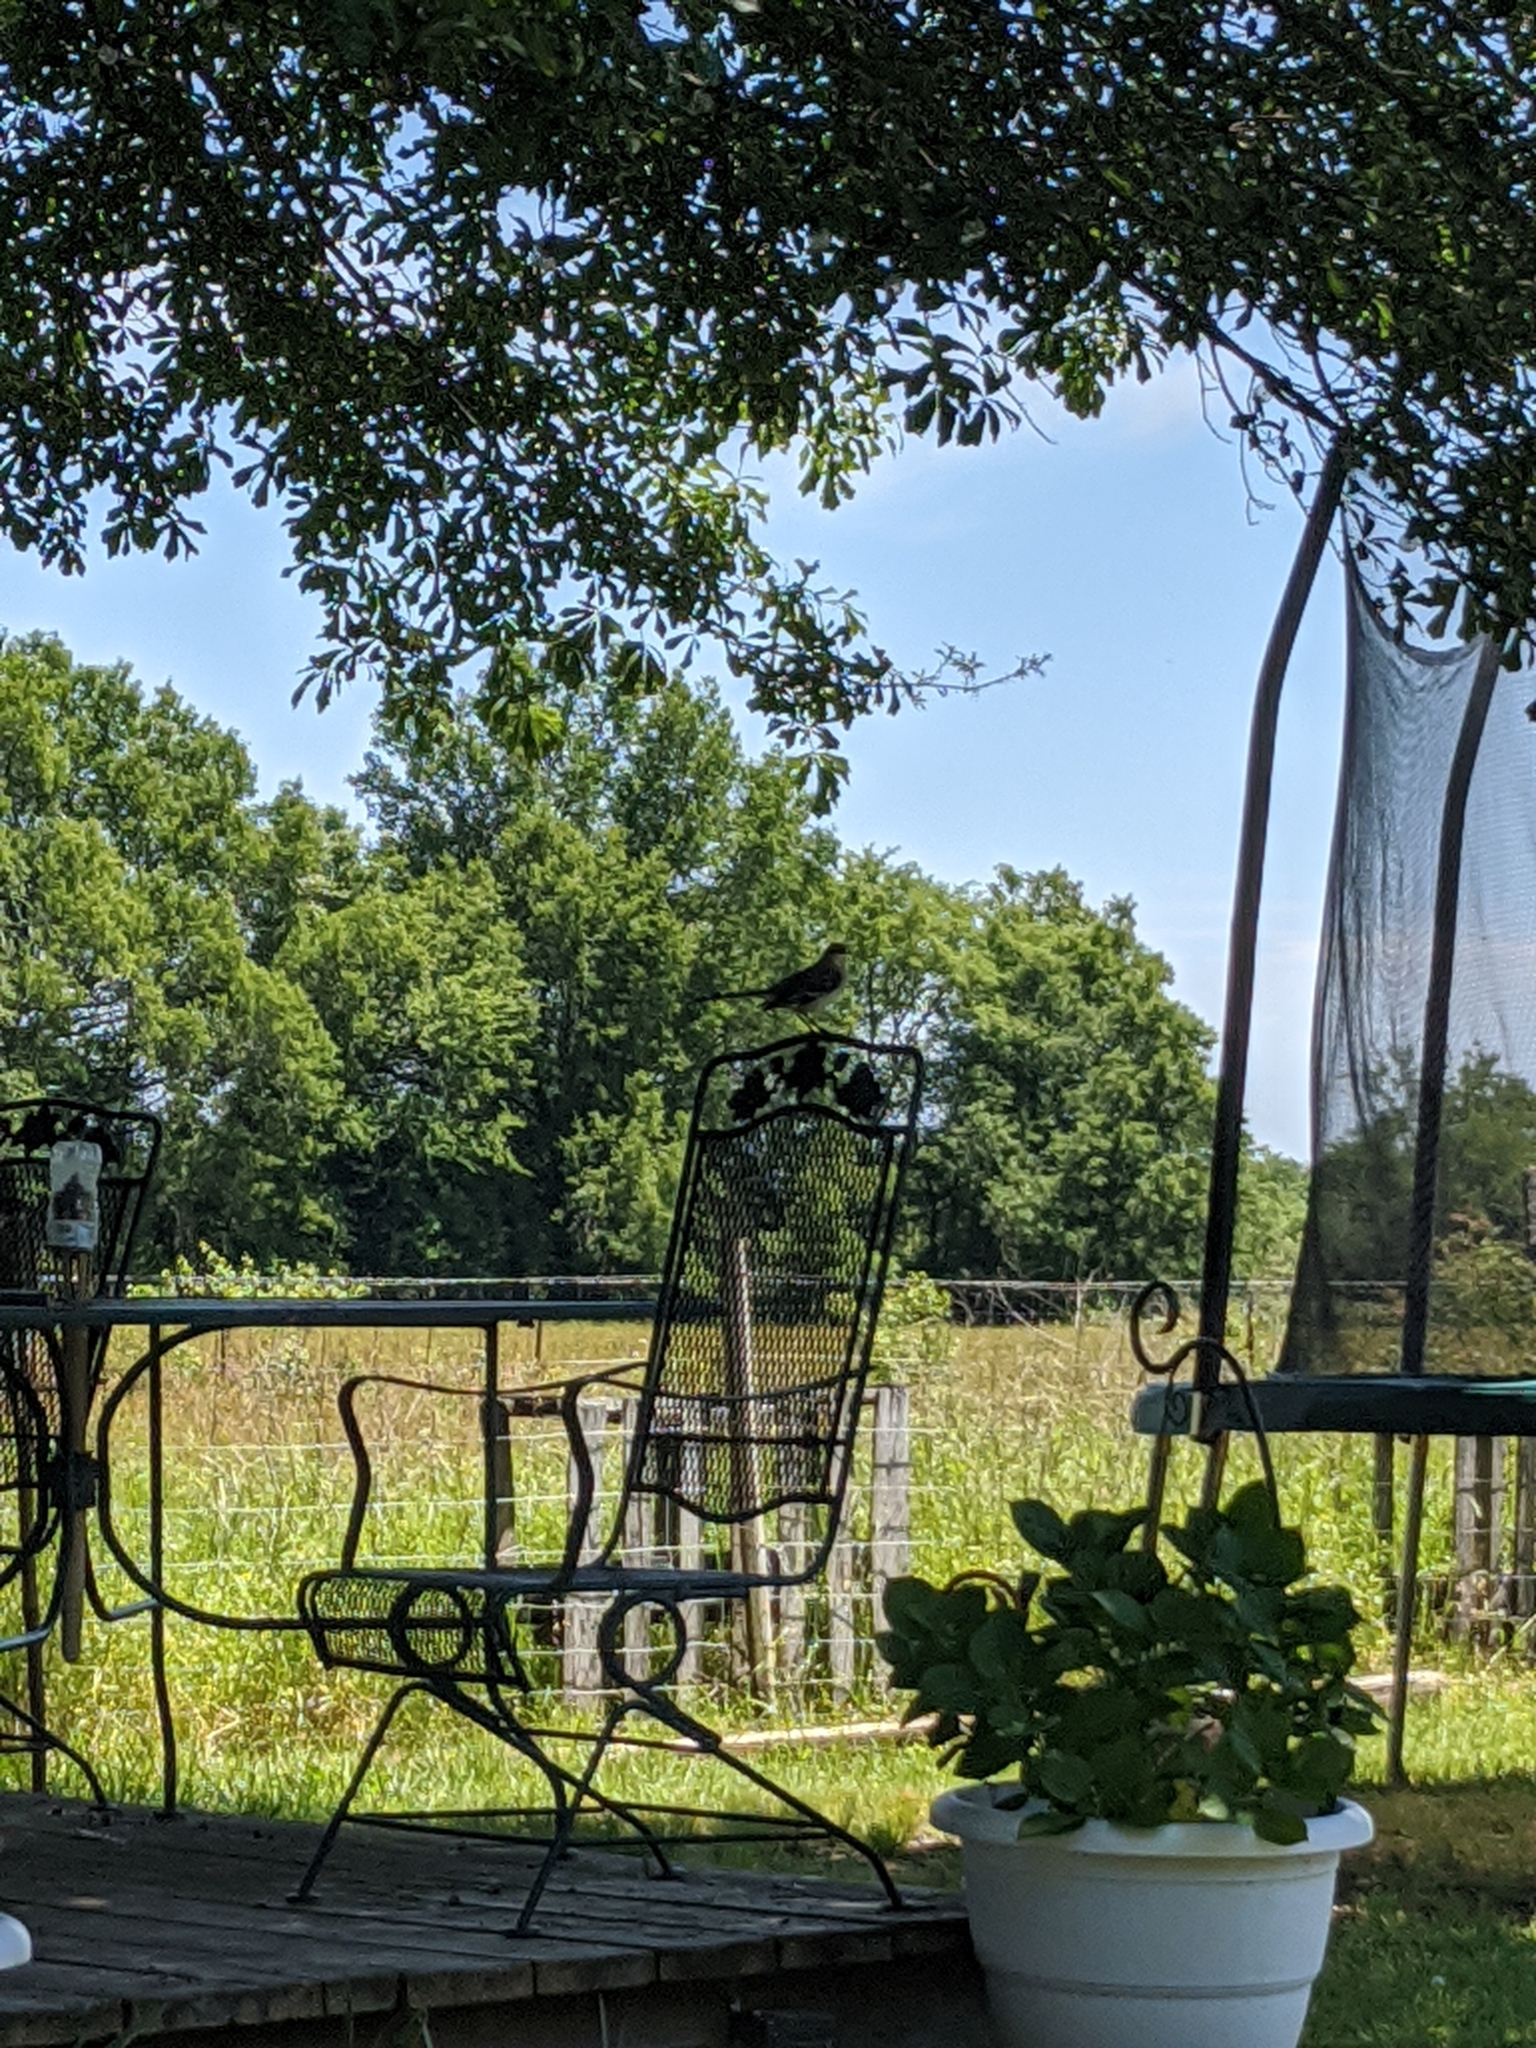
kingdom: Animalia
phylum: Chordata
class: Aves
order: Passeriformes
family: Mimidae
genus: Mimus
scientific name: Mimus polyglottos
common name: Northern mockingbird
